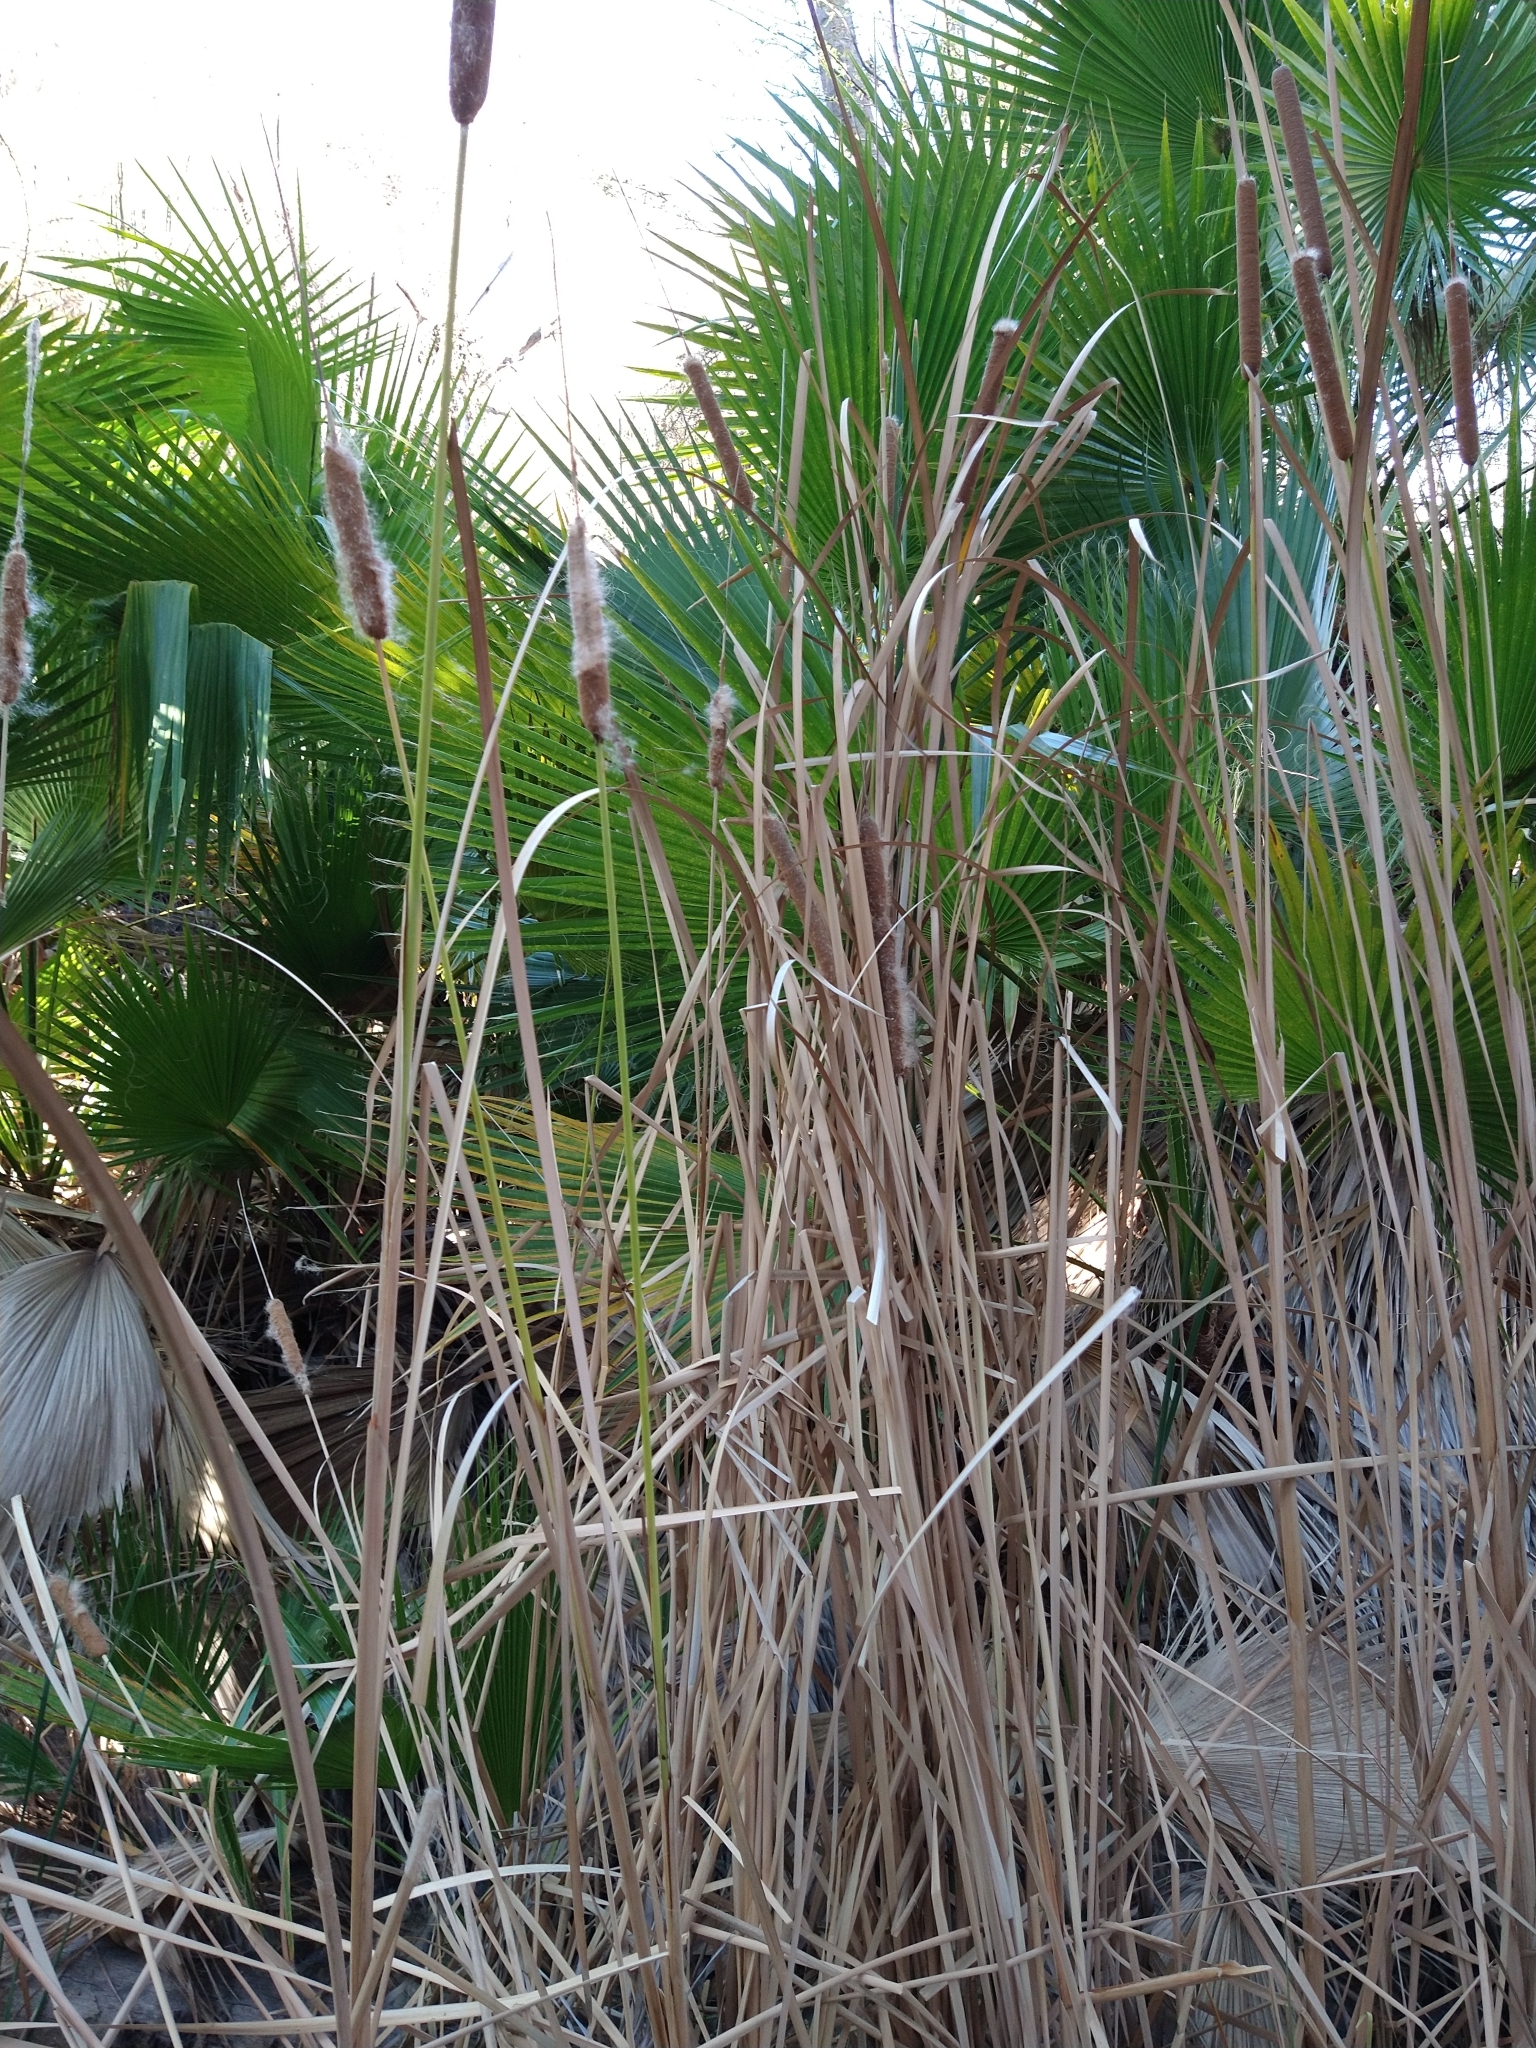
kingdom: Plantae
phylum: Tracheophyta
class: Liliopsida
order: Poales
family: Typhaceae
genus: Typha
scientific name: Typha domingensis
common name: Southern cattail
